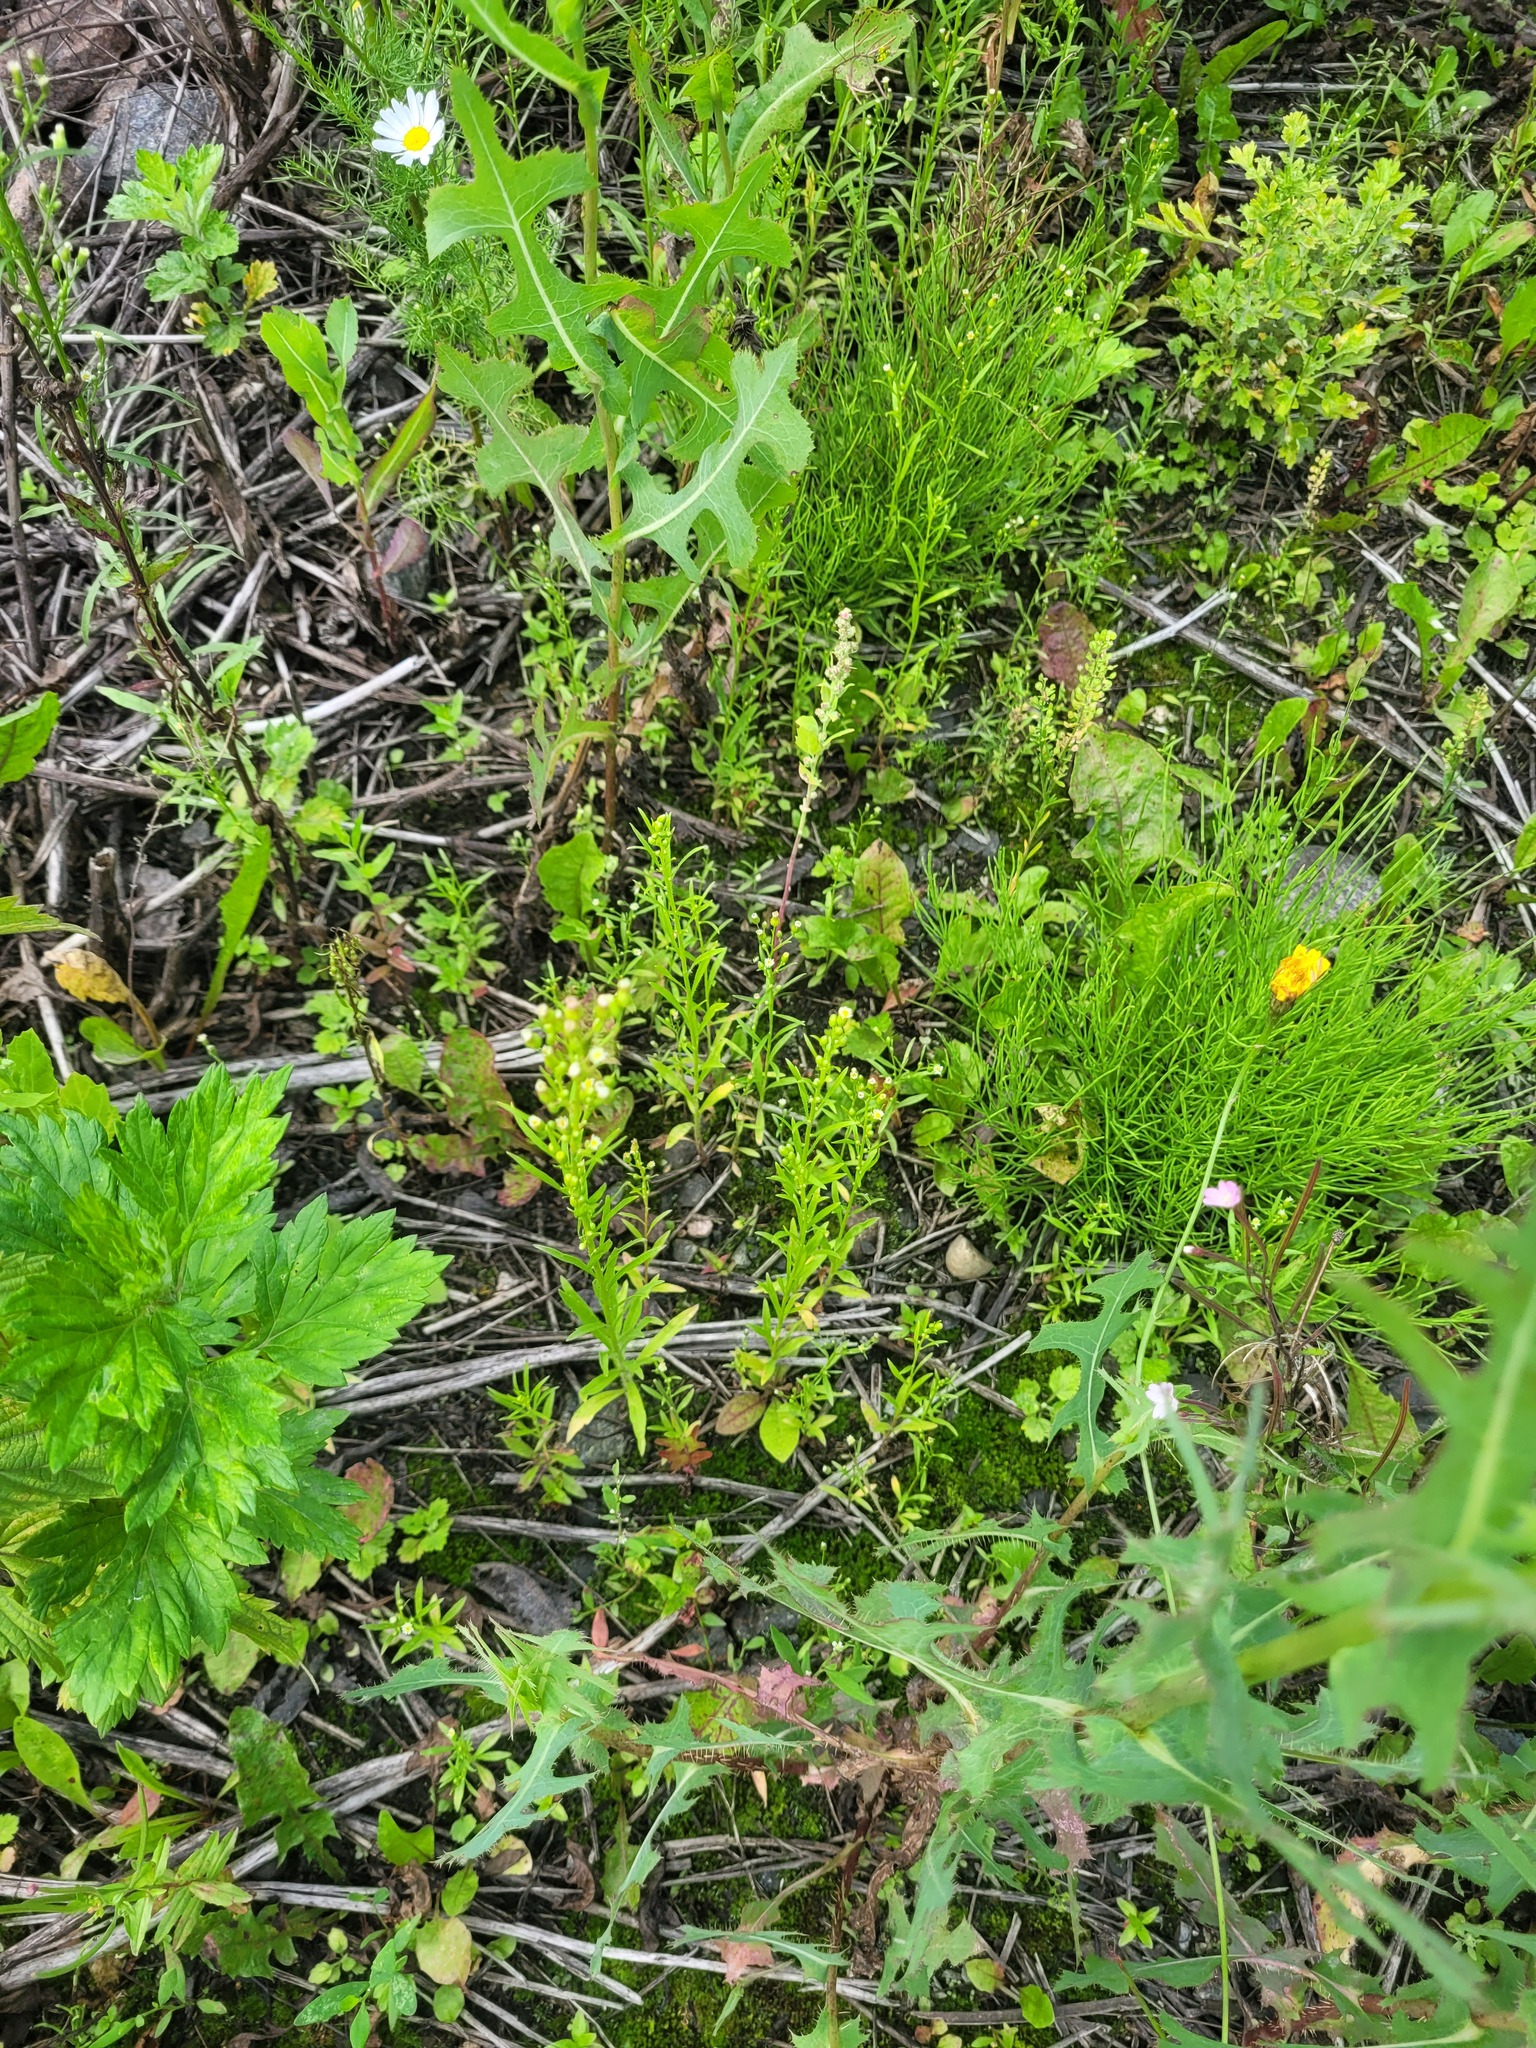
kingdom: Plantae
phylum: Tracheophyta
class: Magnoliopsida
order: Asterales
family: Asteraceae
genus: Erigeron
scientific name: Erigeron canadensis
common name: Canadian fleabane
